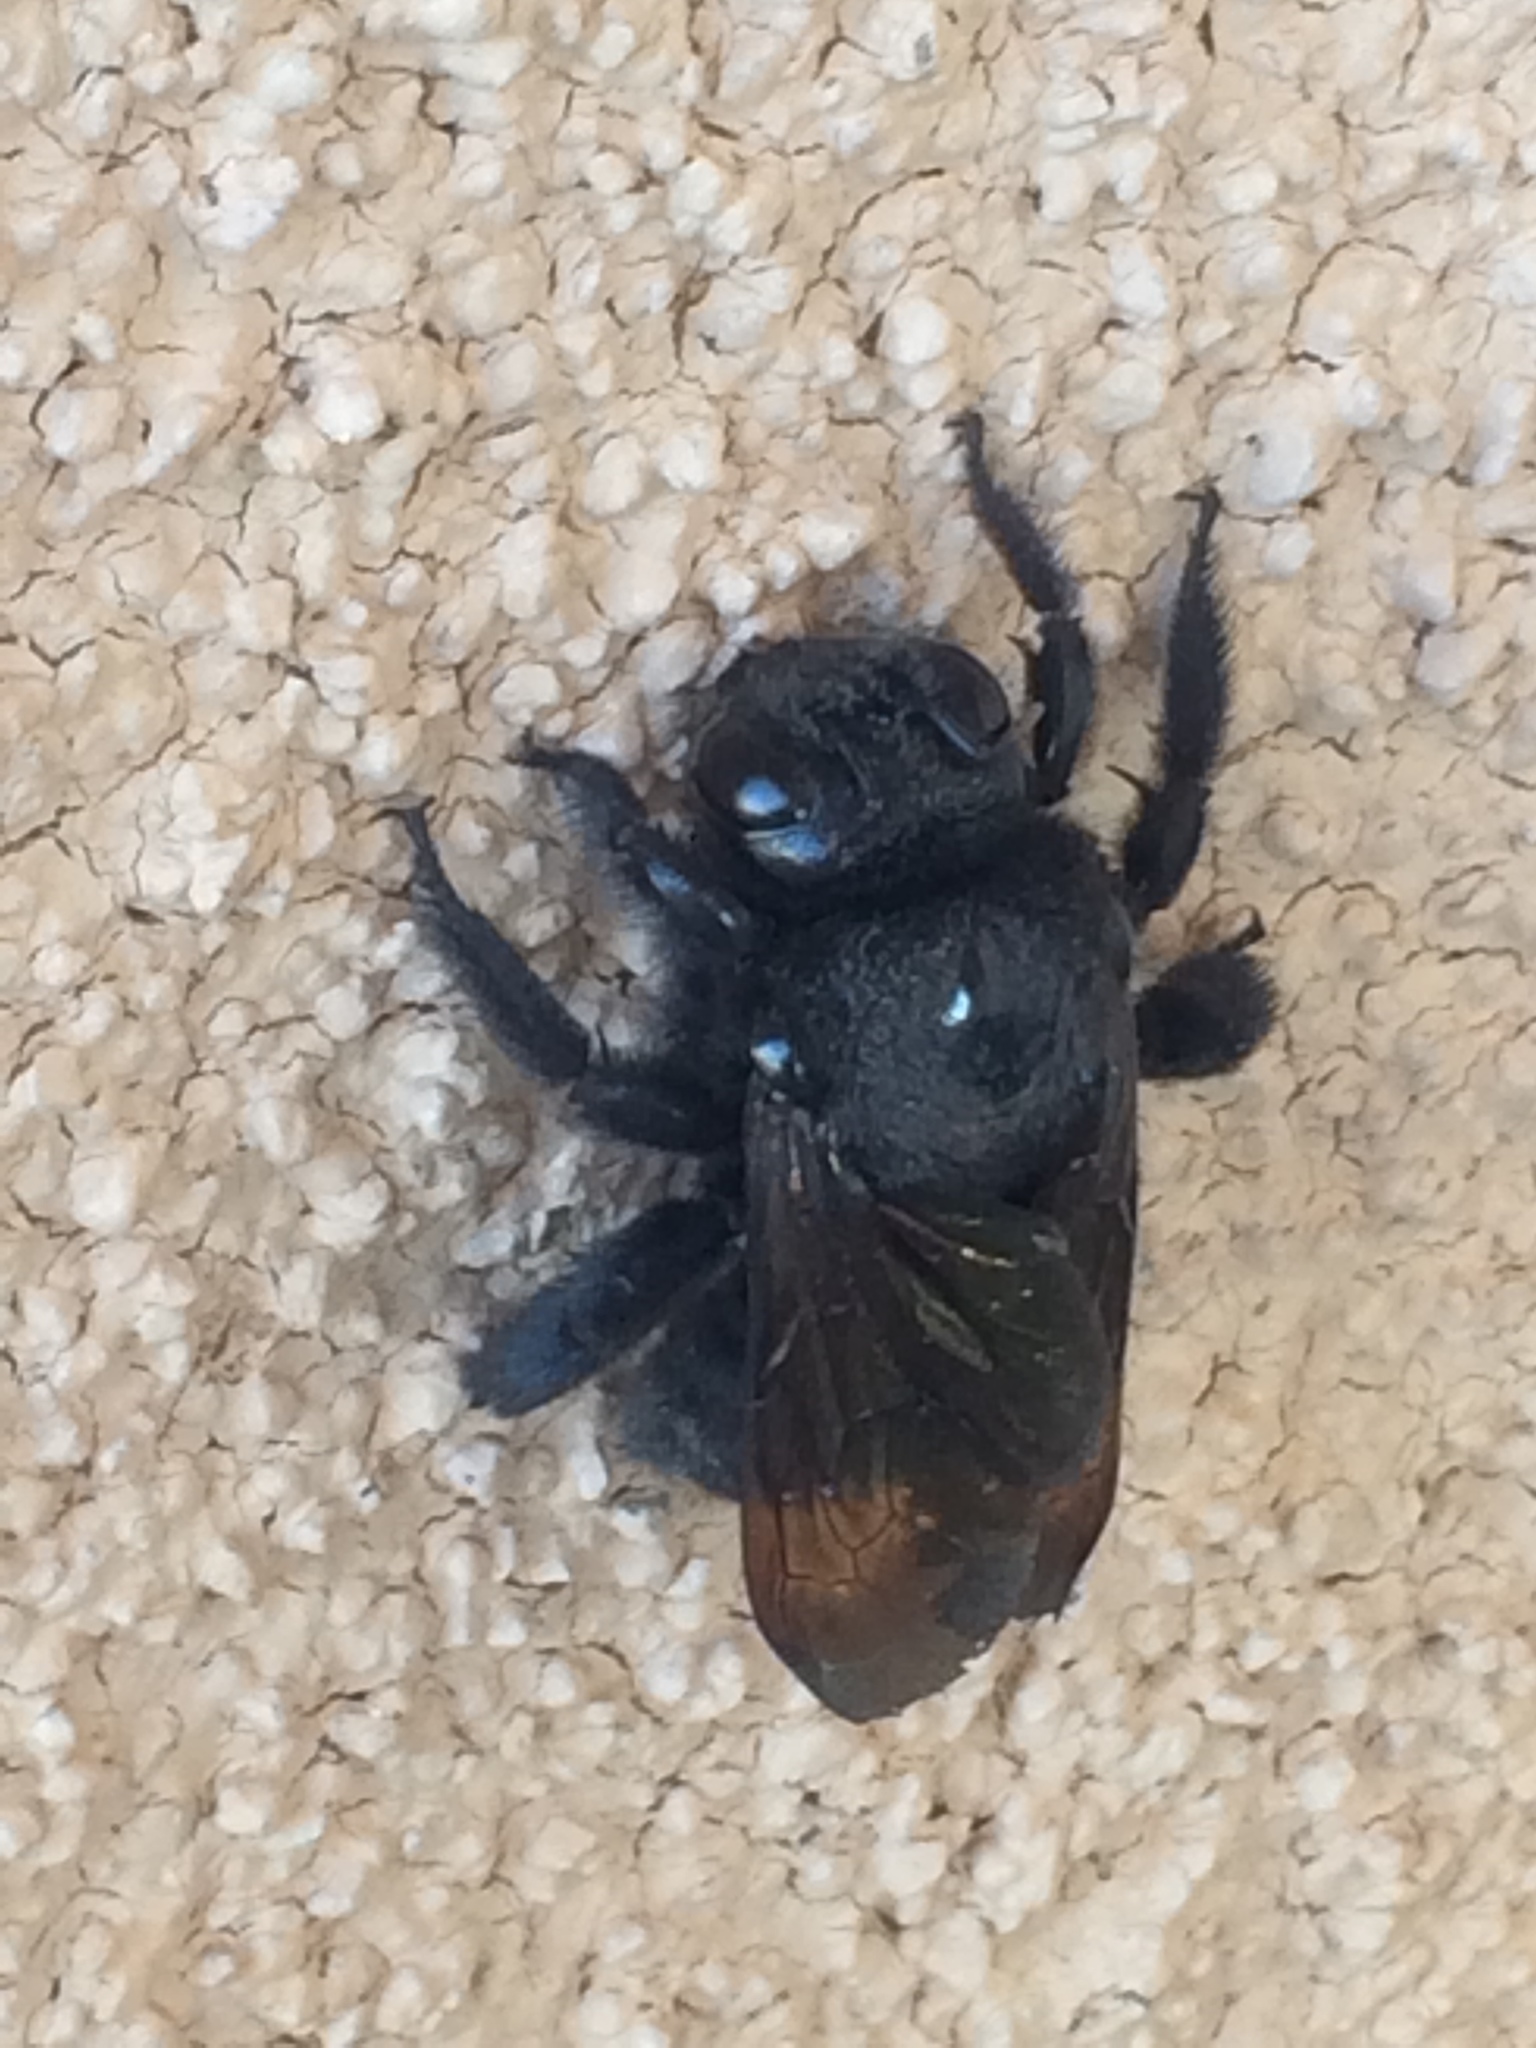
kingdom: Animalia
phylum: Arthropoda
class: Insecta
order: Hymenoptera
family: Apidae
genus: Xylocopa
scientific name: Xylocopa sonorina
